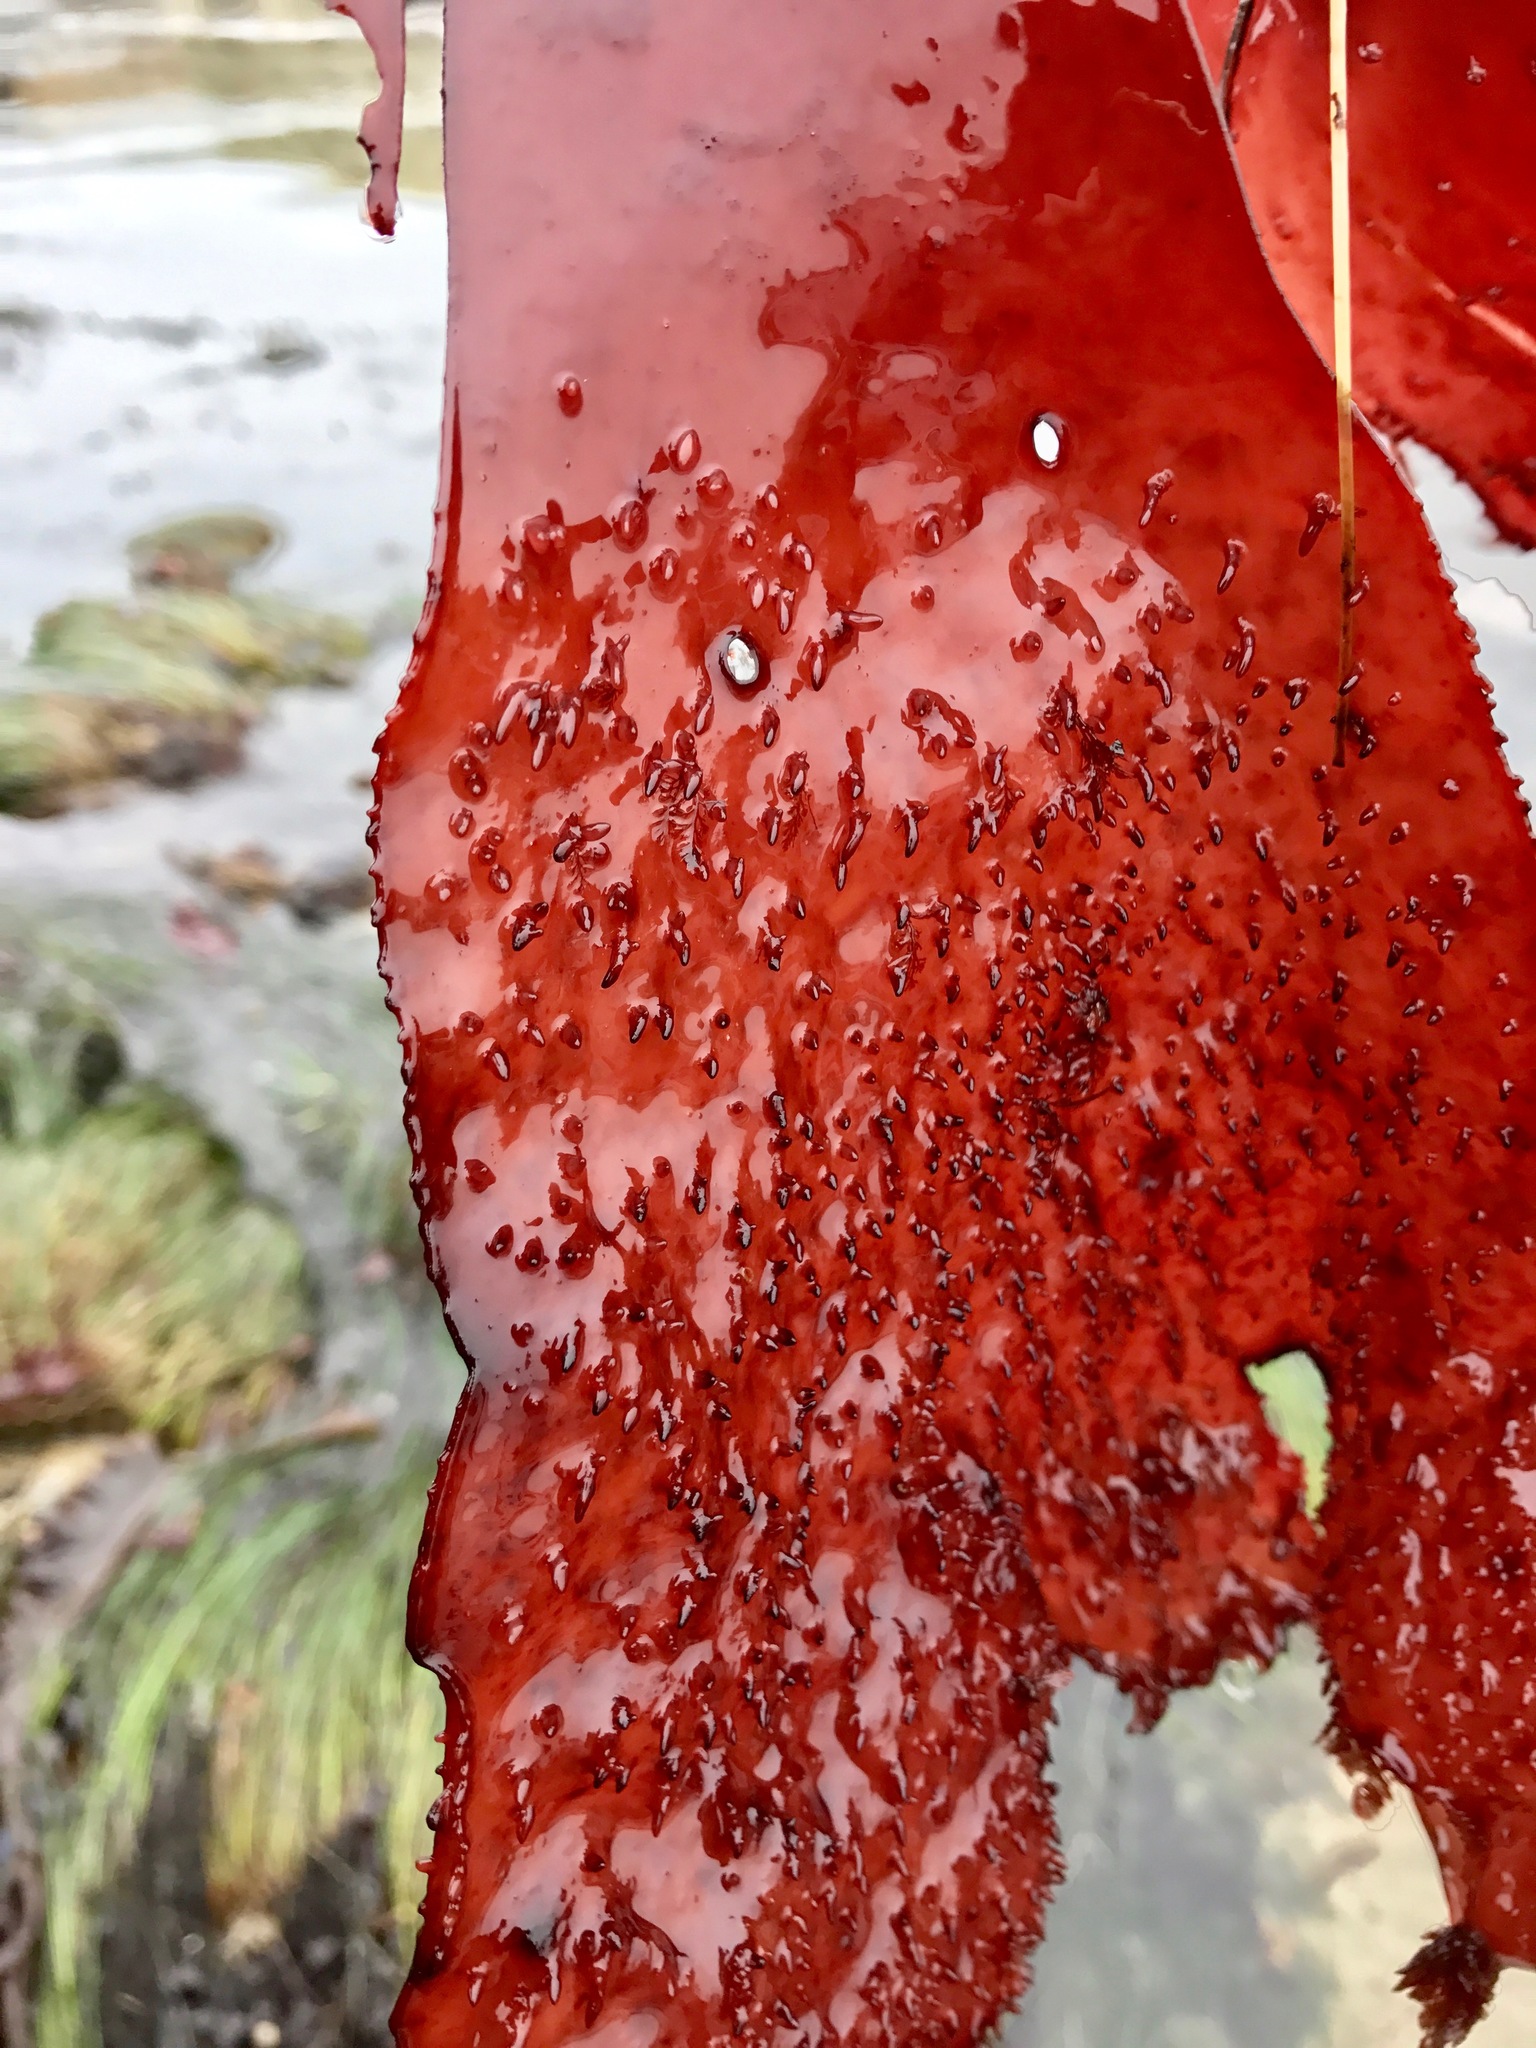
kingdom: Plantae
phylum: Rhodophyta
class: Florideophyceae
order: Gigartinales
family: Gigartinaceae
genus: Chondracanthus
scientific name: Chondracanthus corymbiferus
